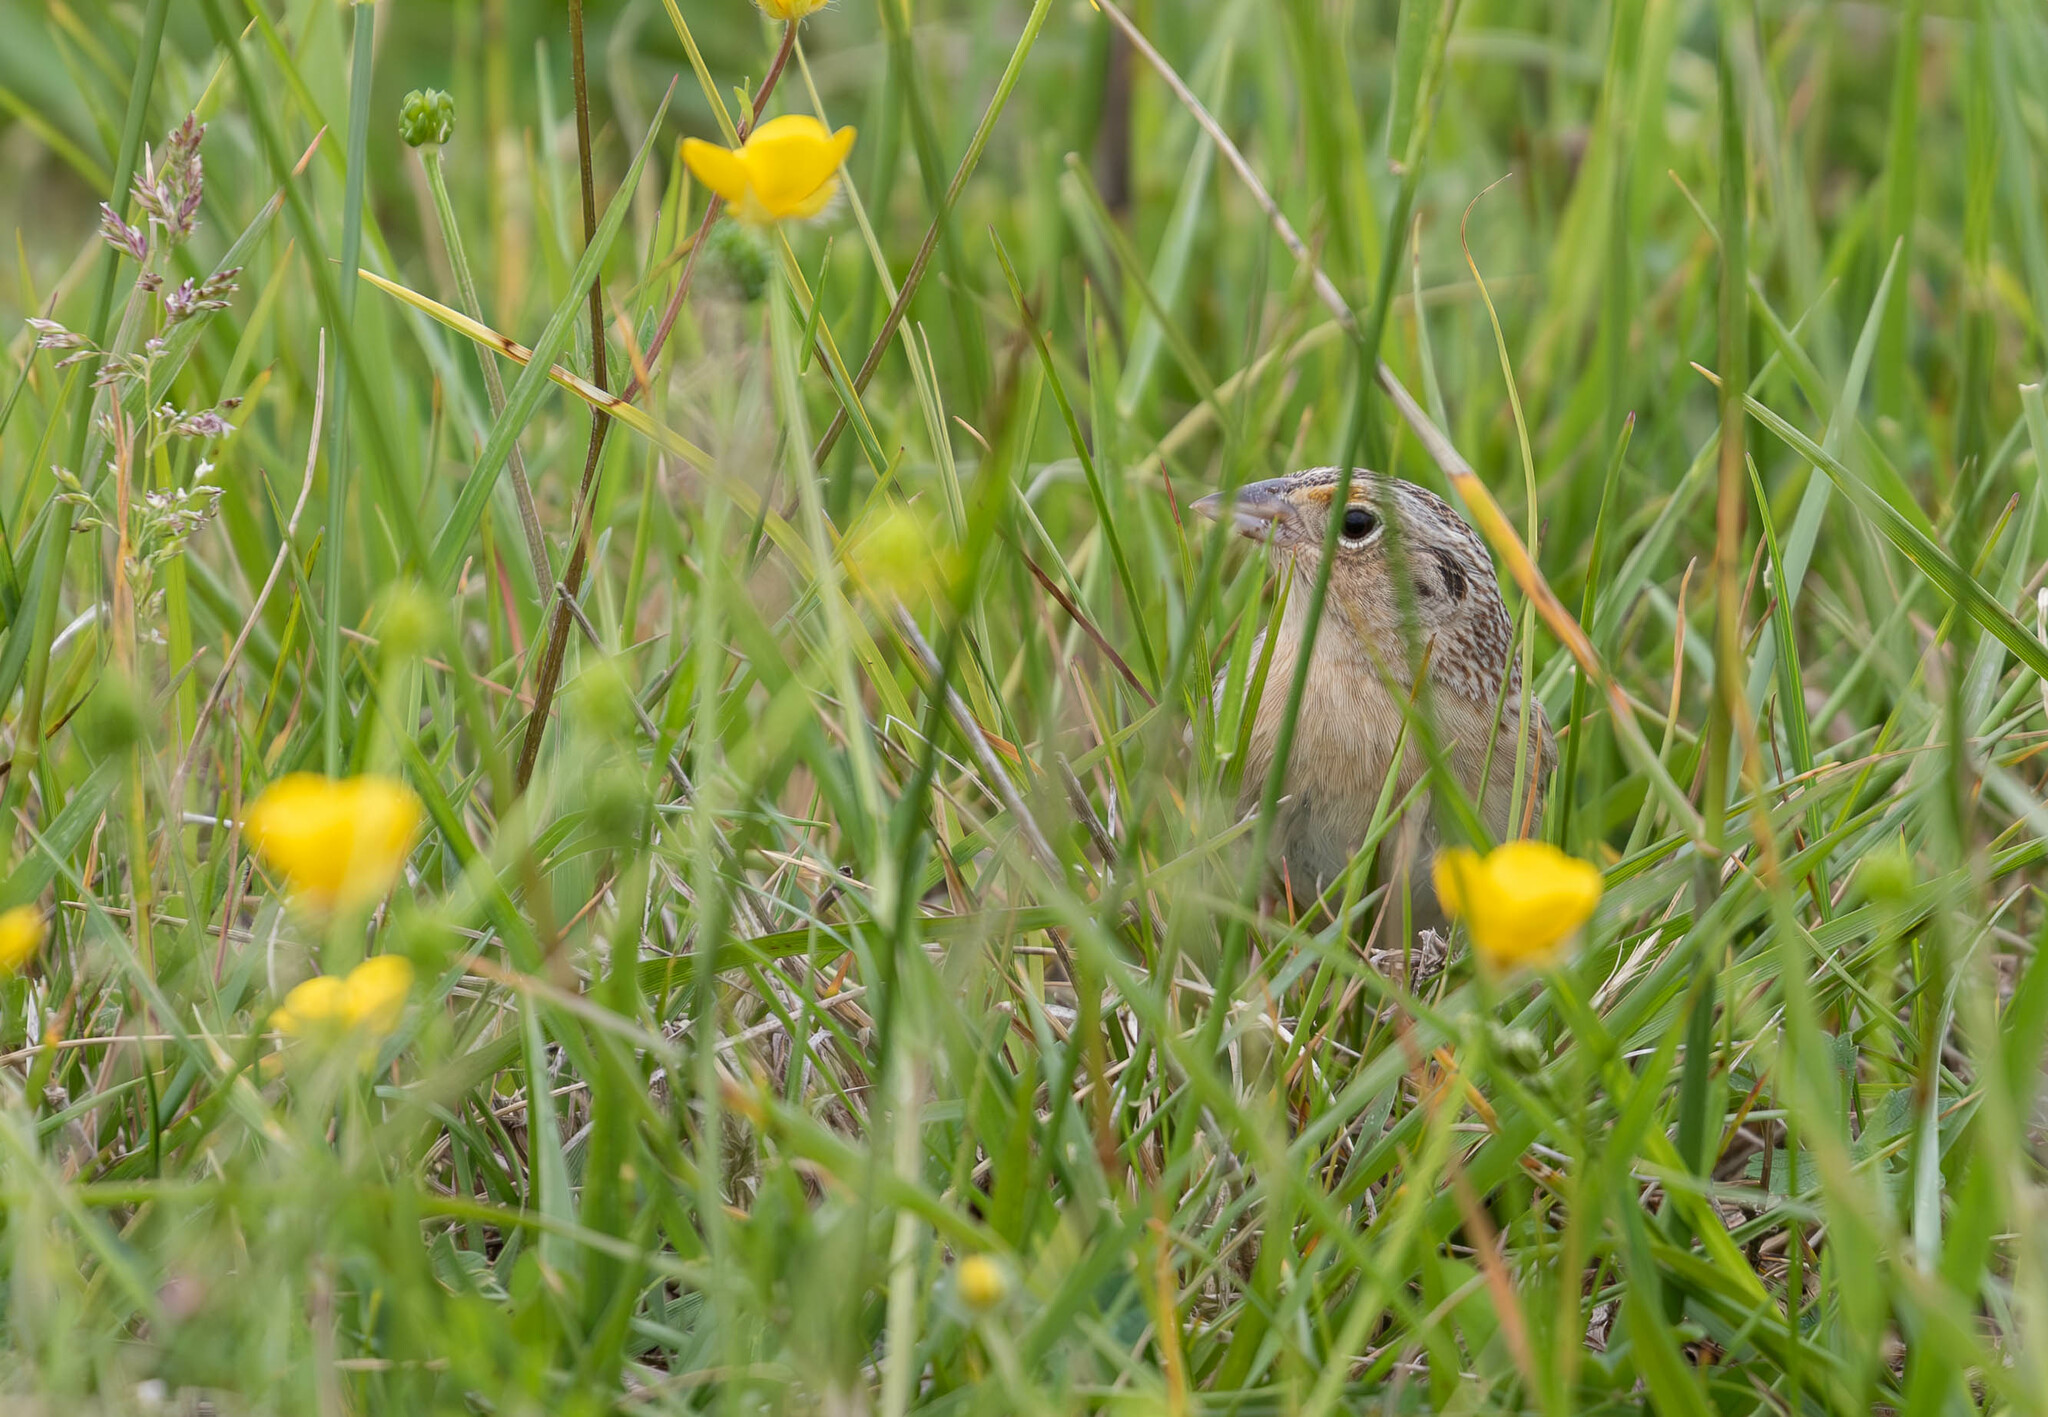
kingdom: Animalia
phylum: Chordata
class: Aves
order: Passeriformes
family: Passerellidae
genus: Ammodramus
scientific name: Ammodramus savannarum
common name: Grasshopper sparrow
